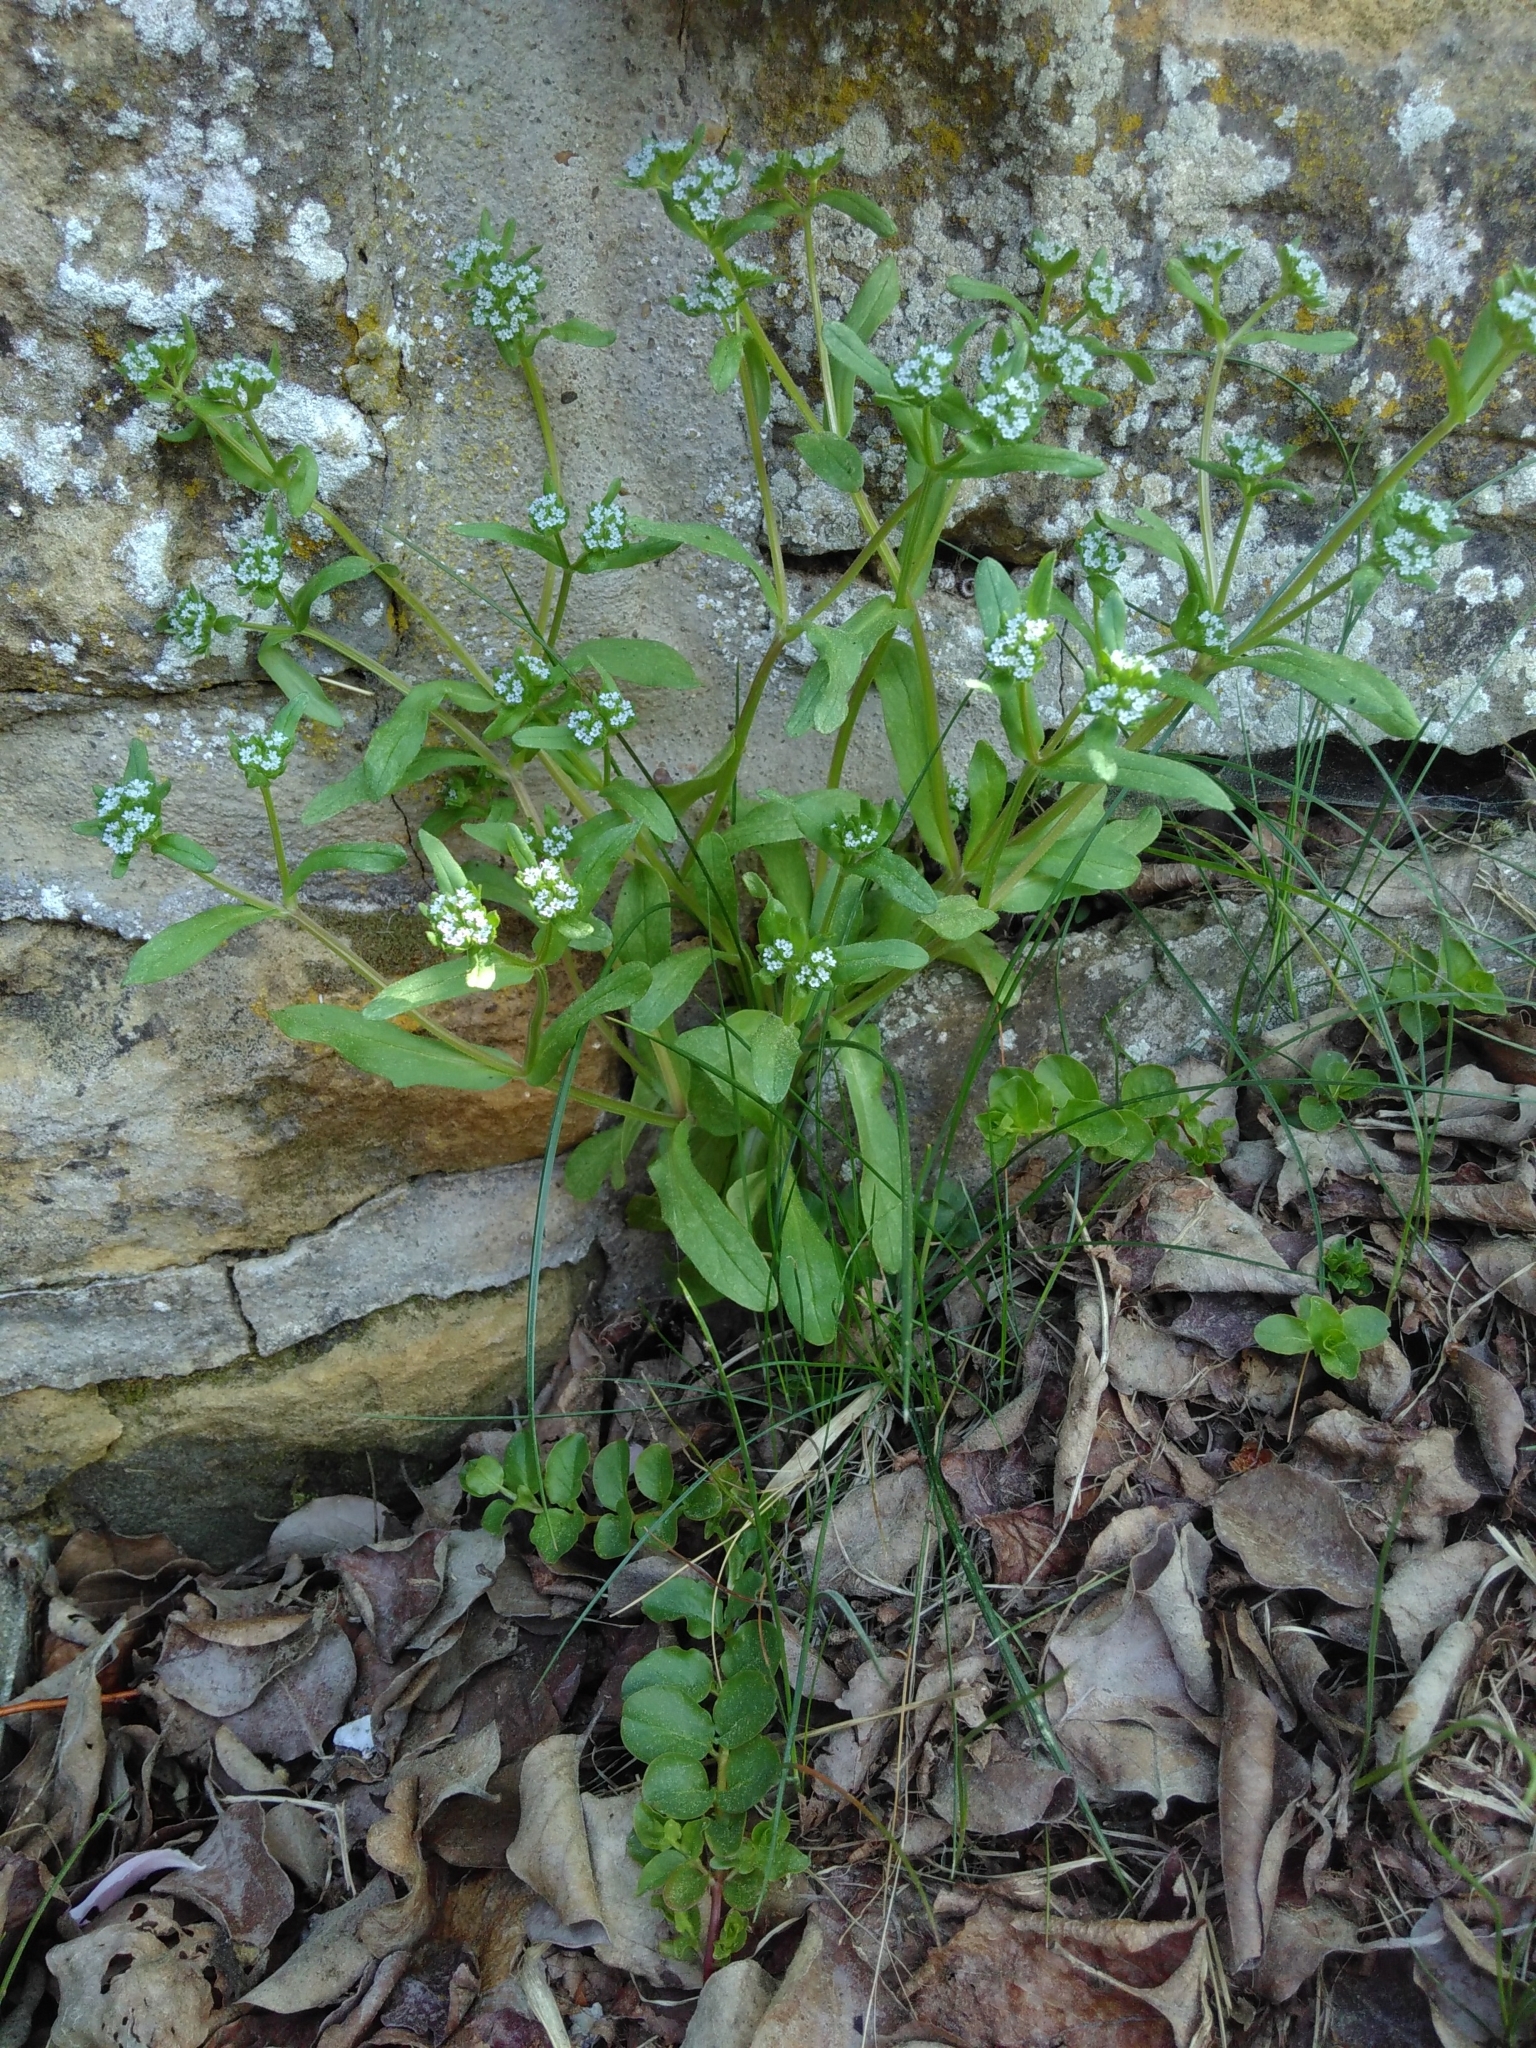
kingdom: Plantae
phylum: Tracheophyta
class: Magnoliopsida
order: Dipsacales
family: Caprifoliaceae
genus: Valerianella
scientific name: Valerianella locusta
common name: Common cornsalad
